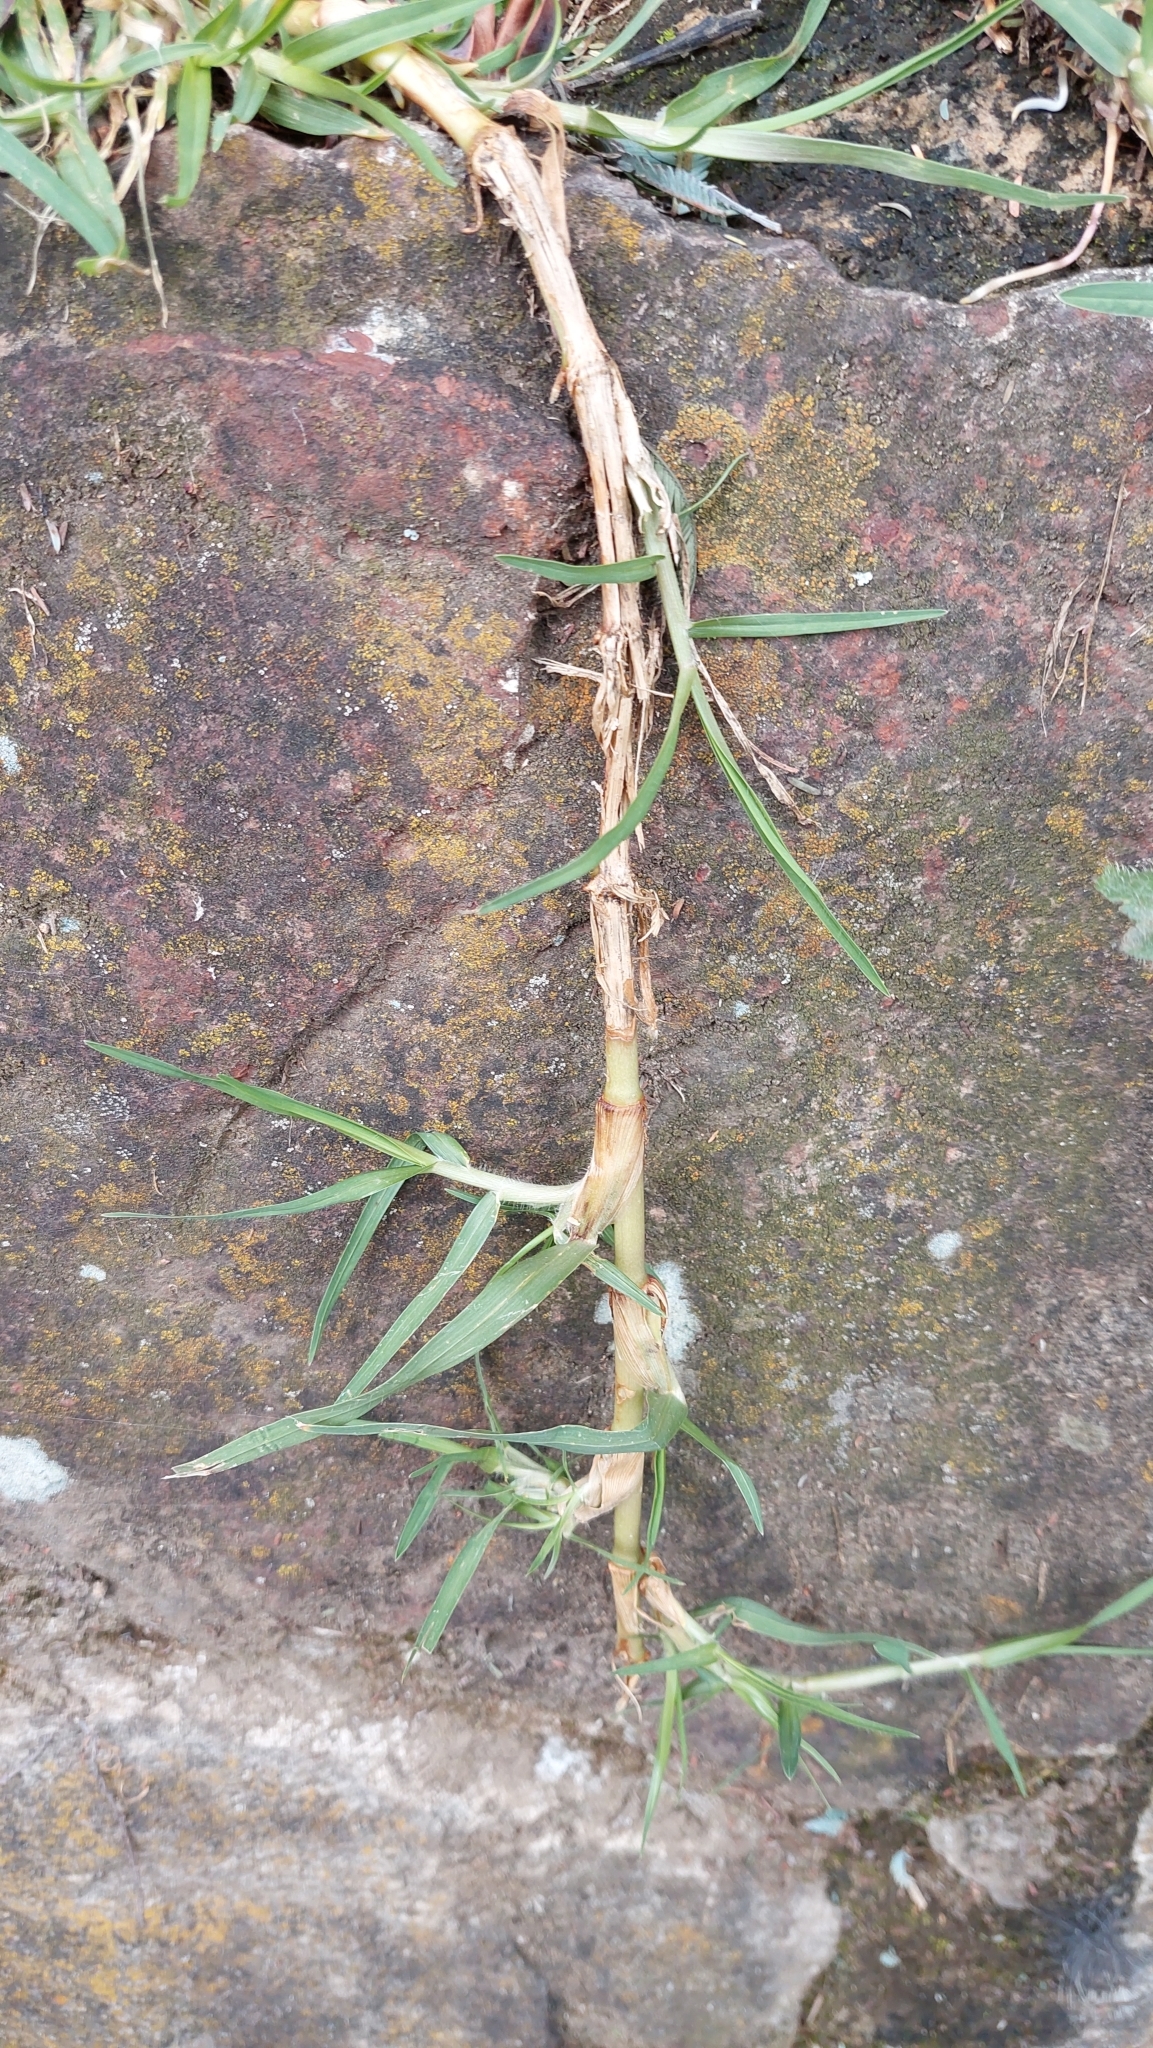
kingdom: Plantae
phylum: Tracheophyta
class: Liliopsida
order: Poales
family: Poaceae
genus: Cenchrus
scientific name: Cenchrus clandestinus
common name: Kikuyugrass
